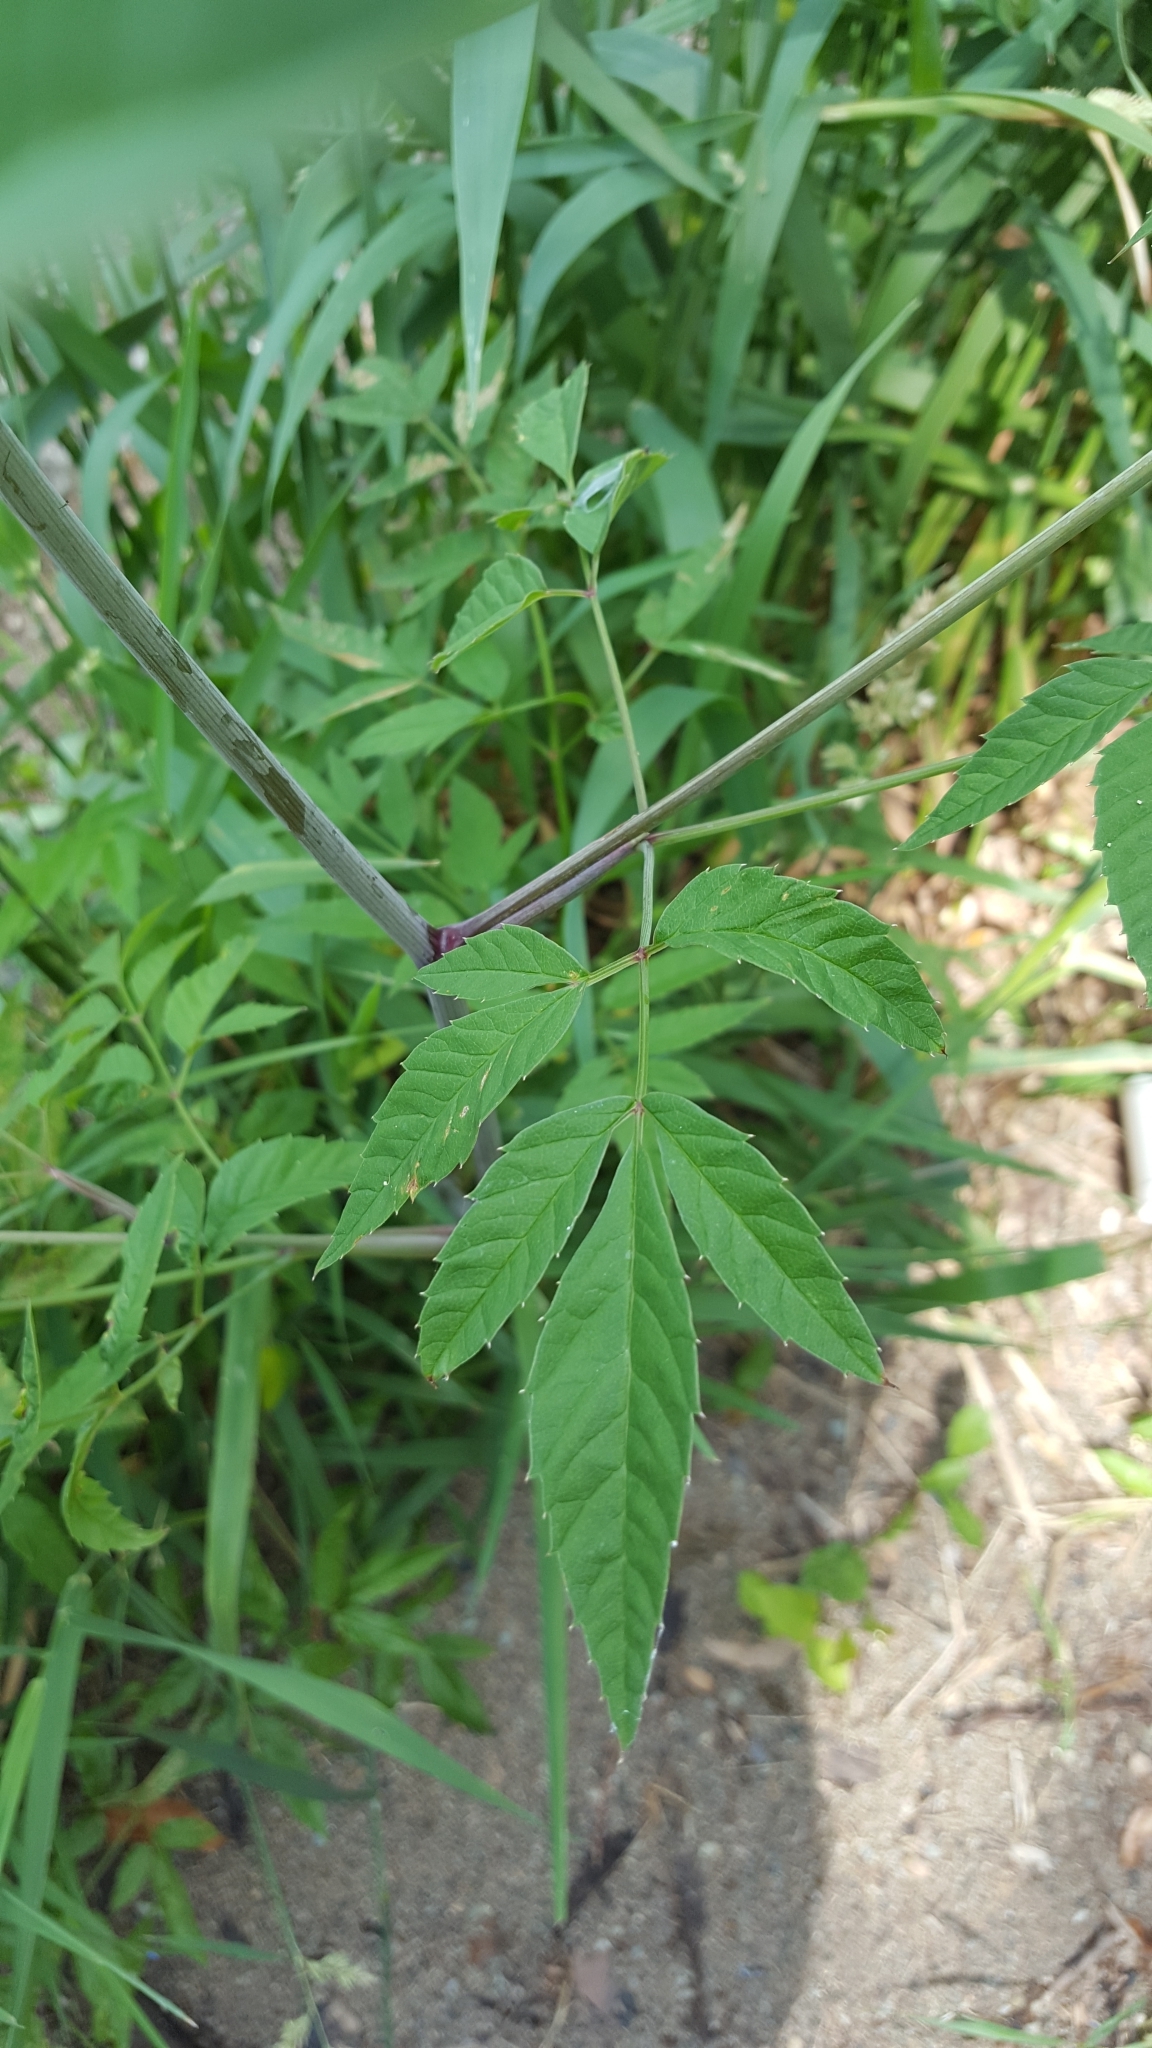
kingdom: Plantae
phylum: Tracheophyta
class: Magnoliopsida
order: Apiales
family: Apiaceae
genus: Cicuta
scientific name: Cicuta maculata
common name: Spotted cowbane
